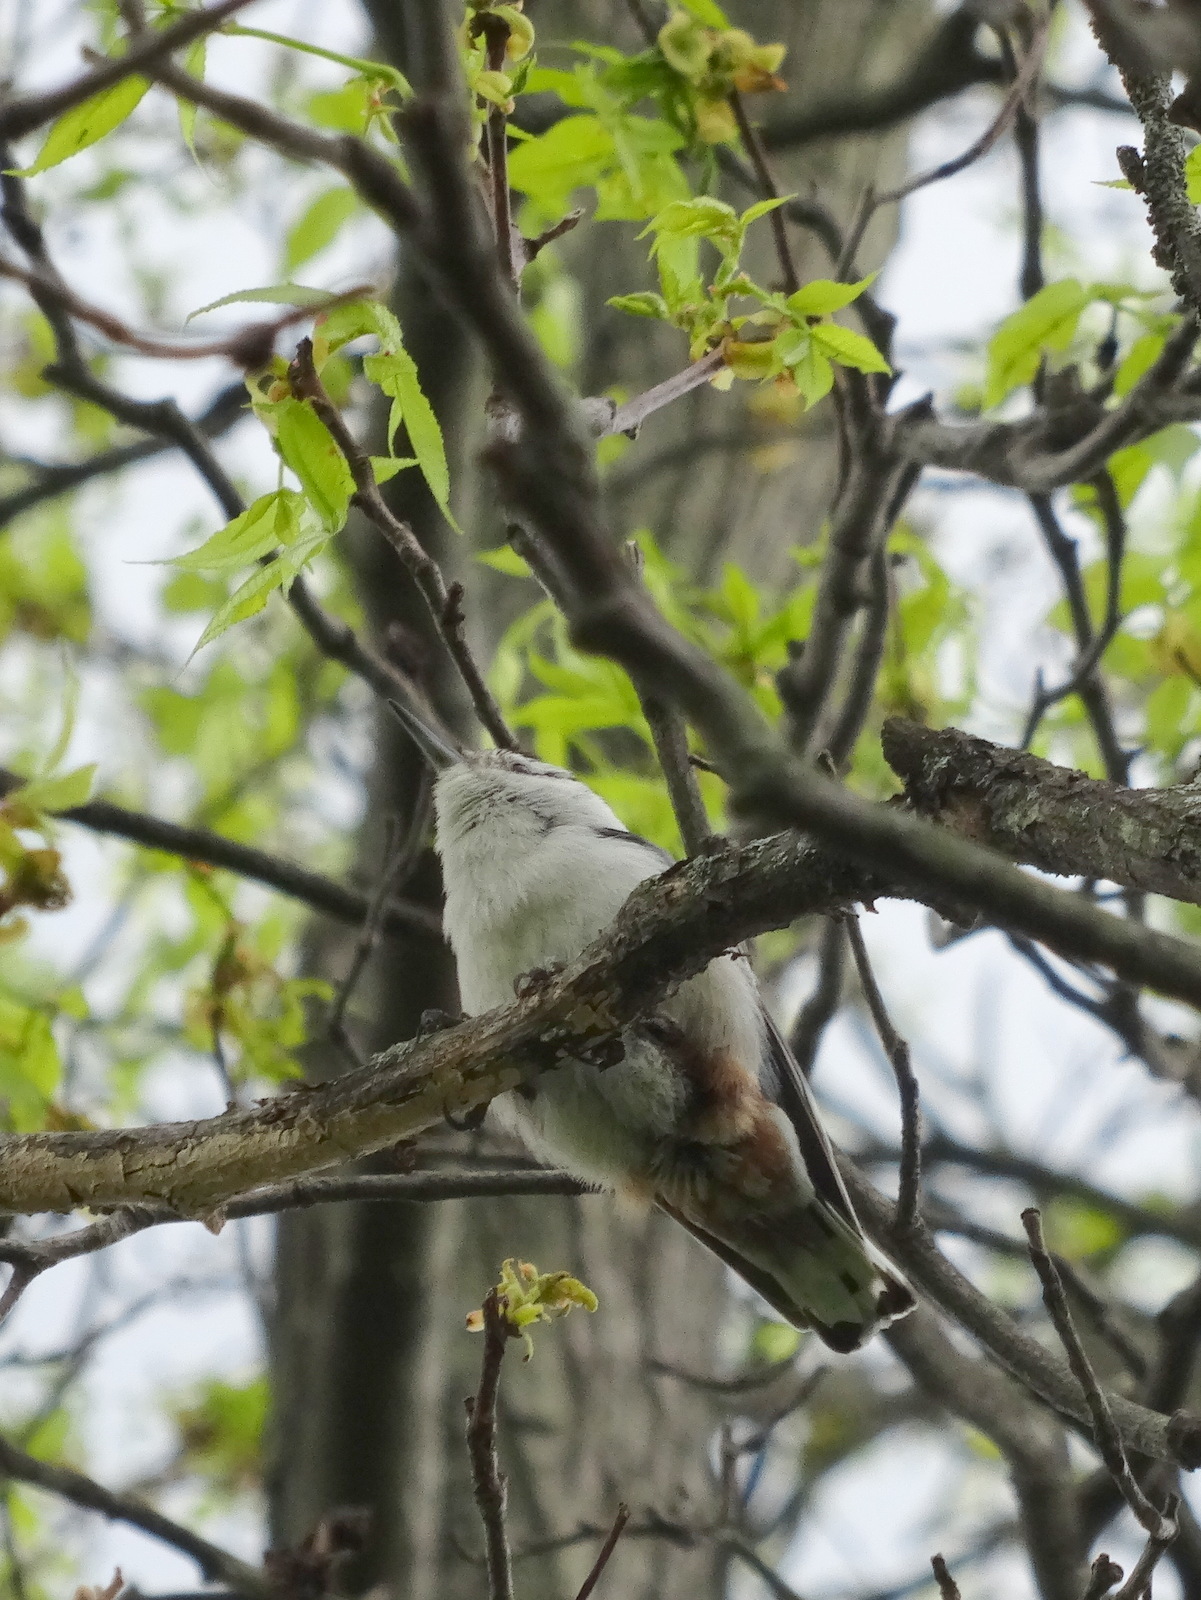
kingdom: Animalia
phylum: Chordata
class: Aves
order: Passeriformes
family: Sittidae
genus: Sitta
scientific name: Sitta carolinensis
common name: White-breasted nuthatch
